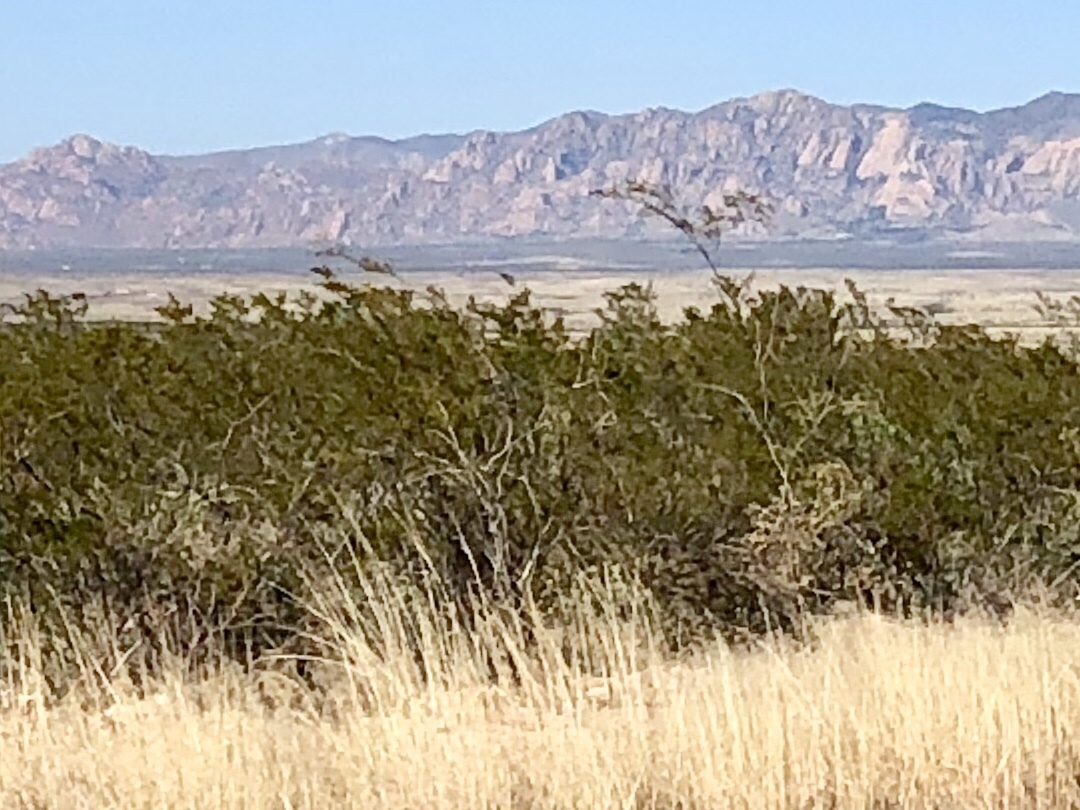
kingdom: Plantae
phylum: Tracheophyta
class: Magnoliopsida
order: Zygophyllales
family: Zygophyllaceae
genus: Larrea
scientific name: Larrea tridentata
